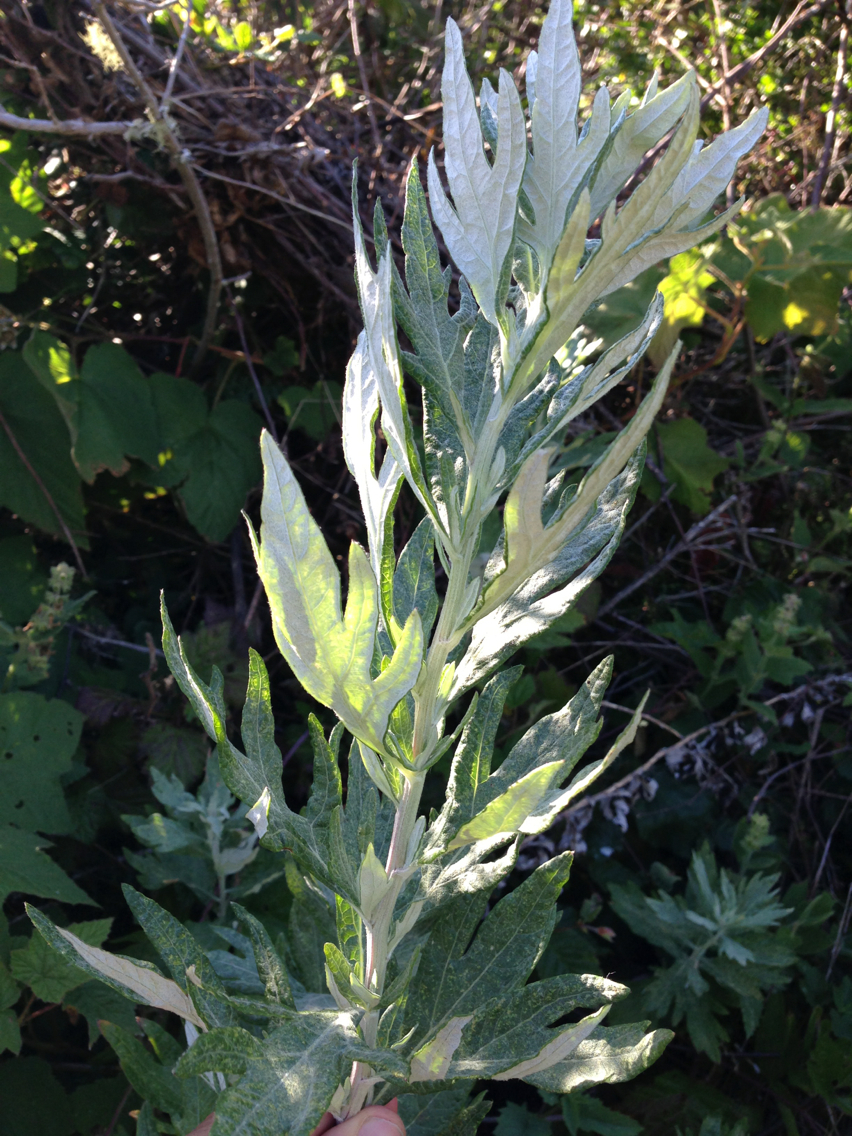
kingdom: Plantae
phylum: Tracheophyta
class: Magnoliopsida
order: Asterales
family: Asteraceae
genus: Artemisia
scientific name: Artemisia douglasiana
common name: Northwest mugwort
